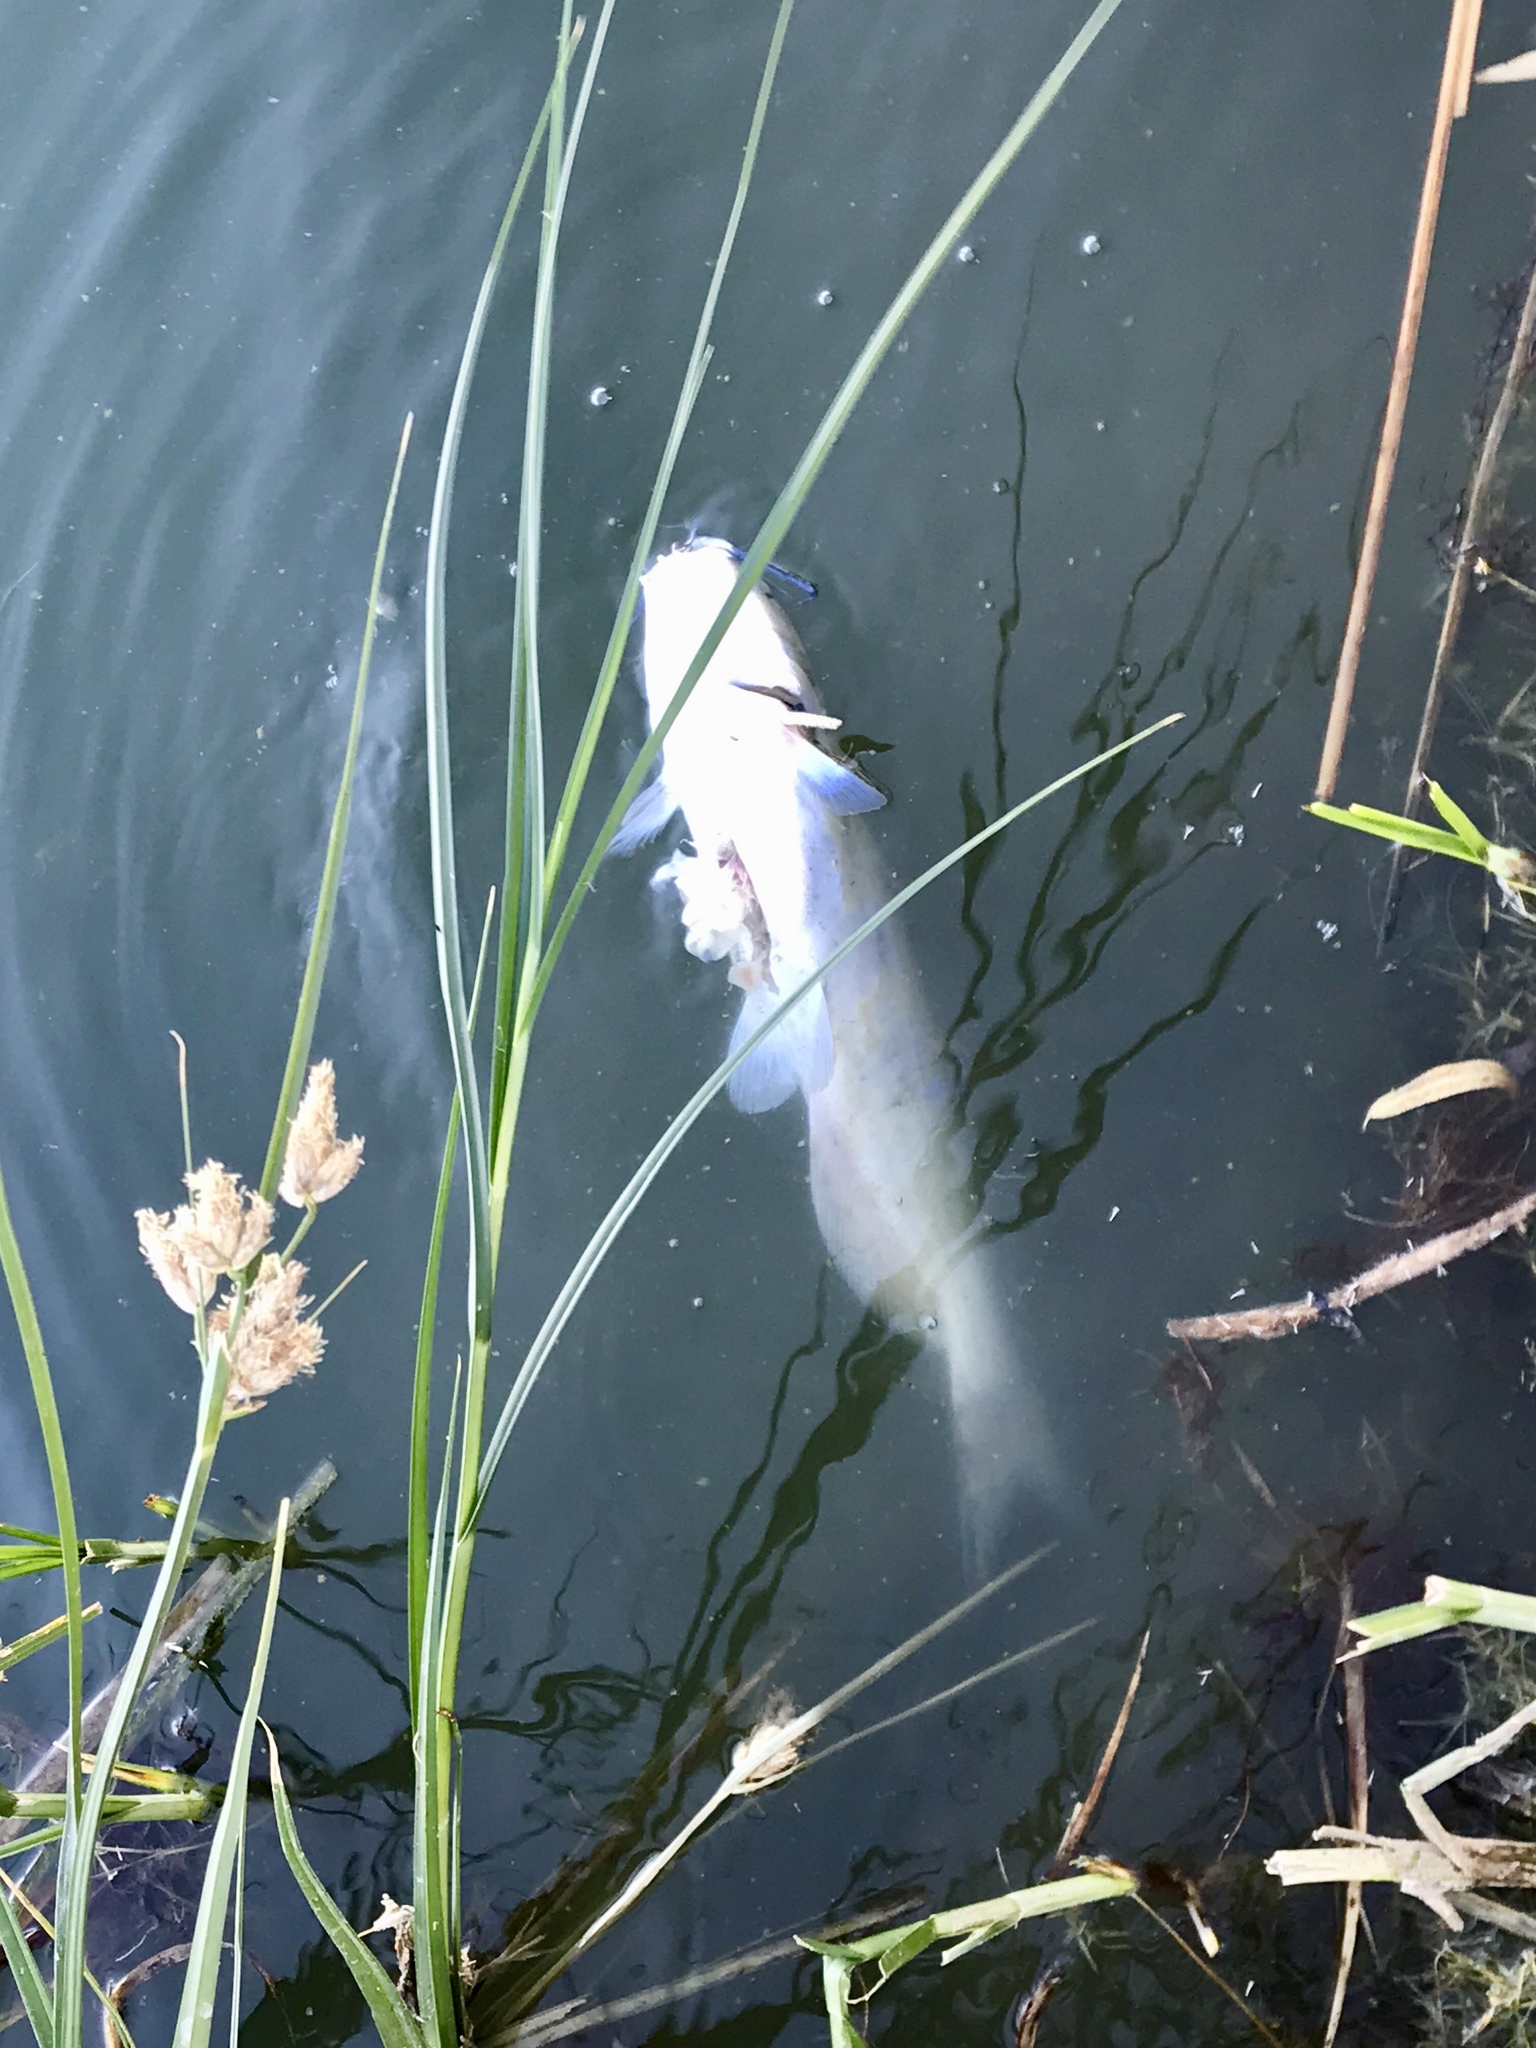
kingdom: Animalia
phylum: Chordata
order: Siluriformes
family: Ictaluridae
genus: Ictalurus
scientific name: Ictalurus punctatus
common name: Channel catfish
